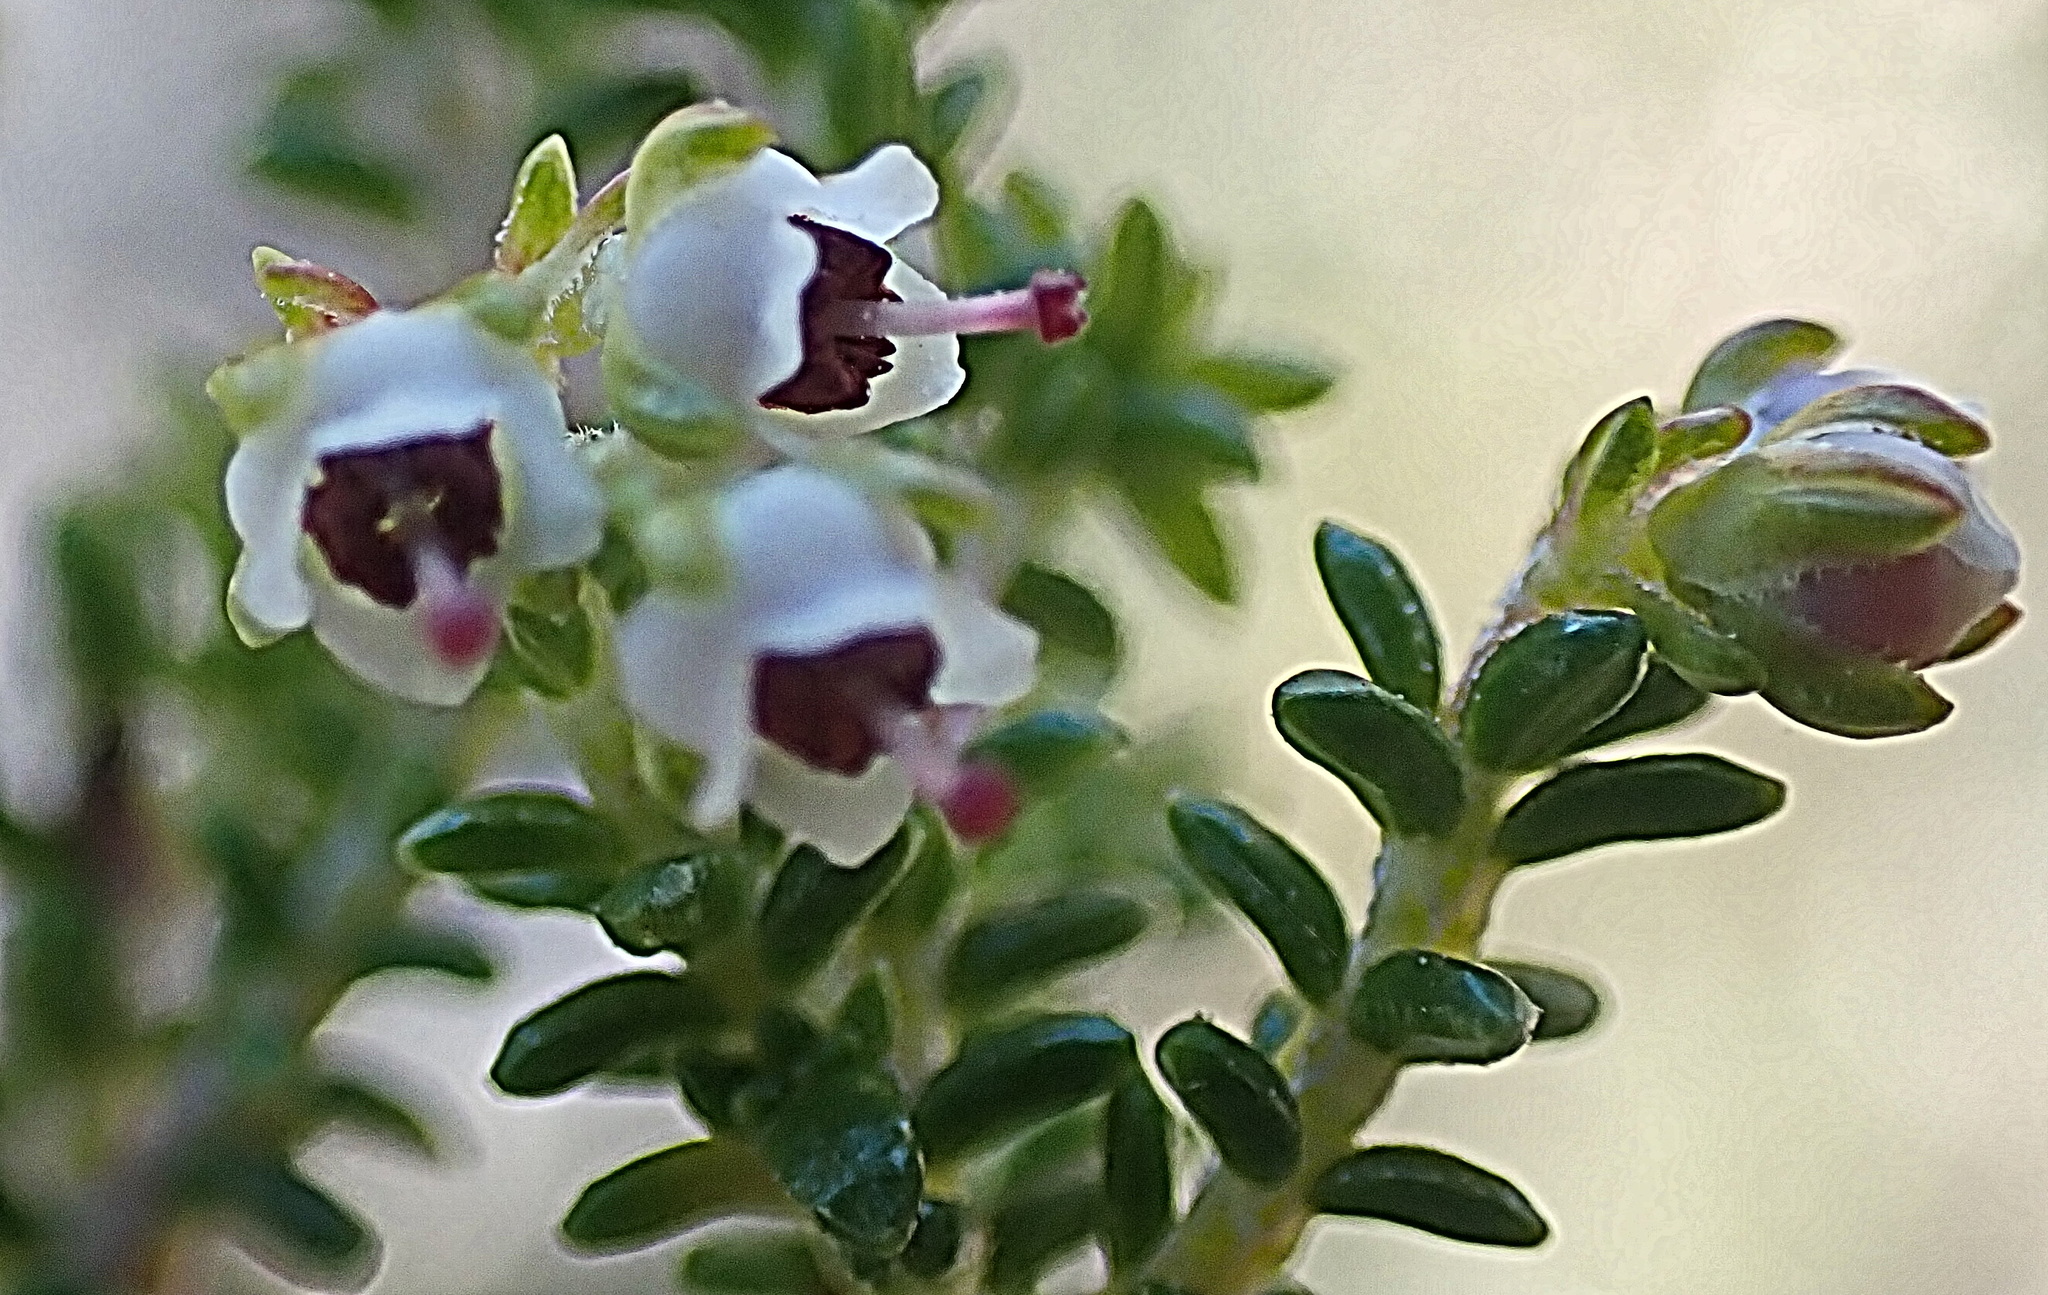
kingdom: Plantae
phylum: Tracheophyta
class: Magnoliopsida
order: Ericales
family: Ericaceae
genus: Erica
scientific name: Erica arenaria
